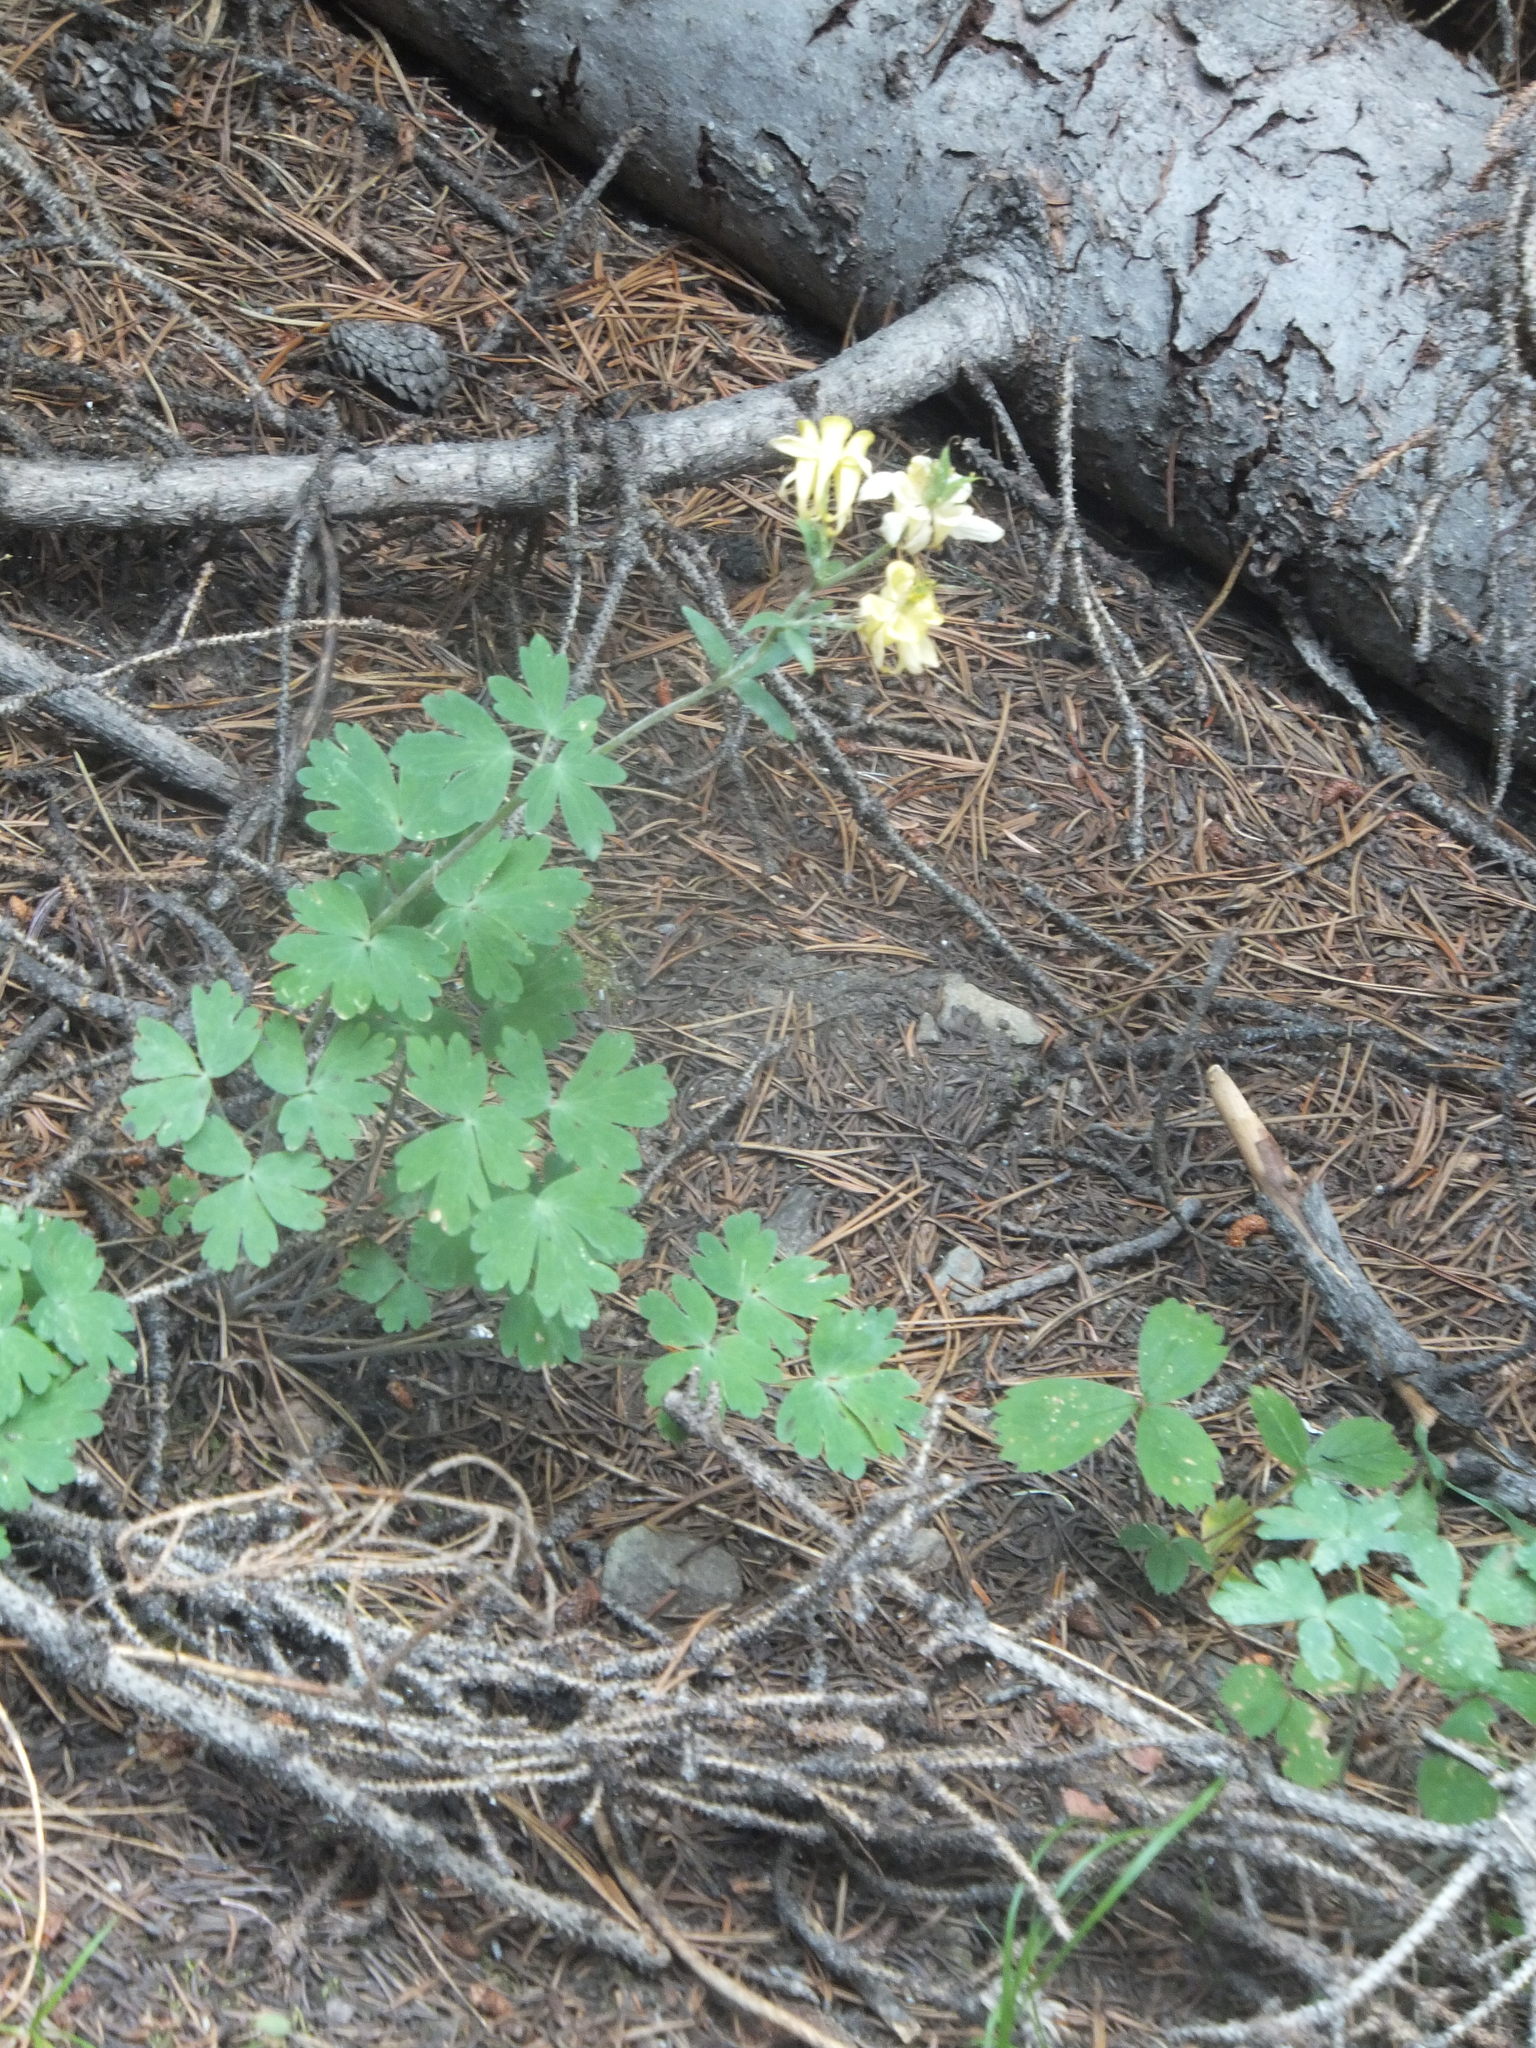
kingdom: Plantae
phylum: Tracheophyta
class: Magnoliopsida
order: Ranunculales
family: Ranunculaceae
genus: Aquilegia
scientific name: Aquilegia flavescens
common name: Yellow columbine
